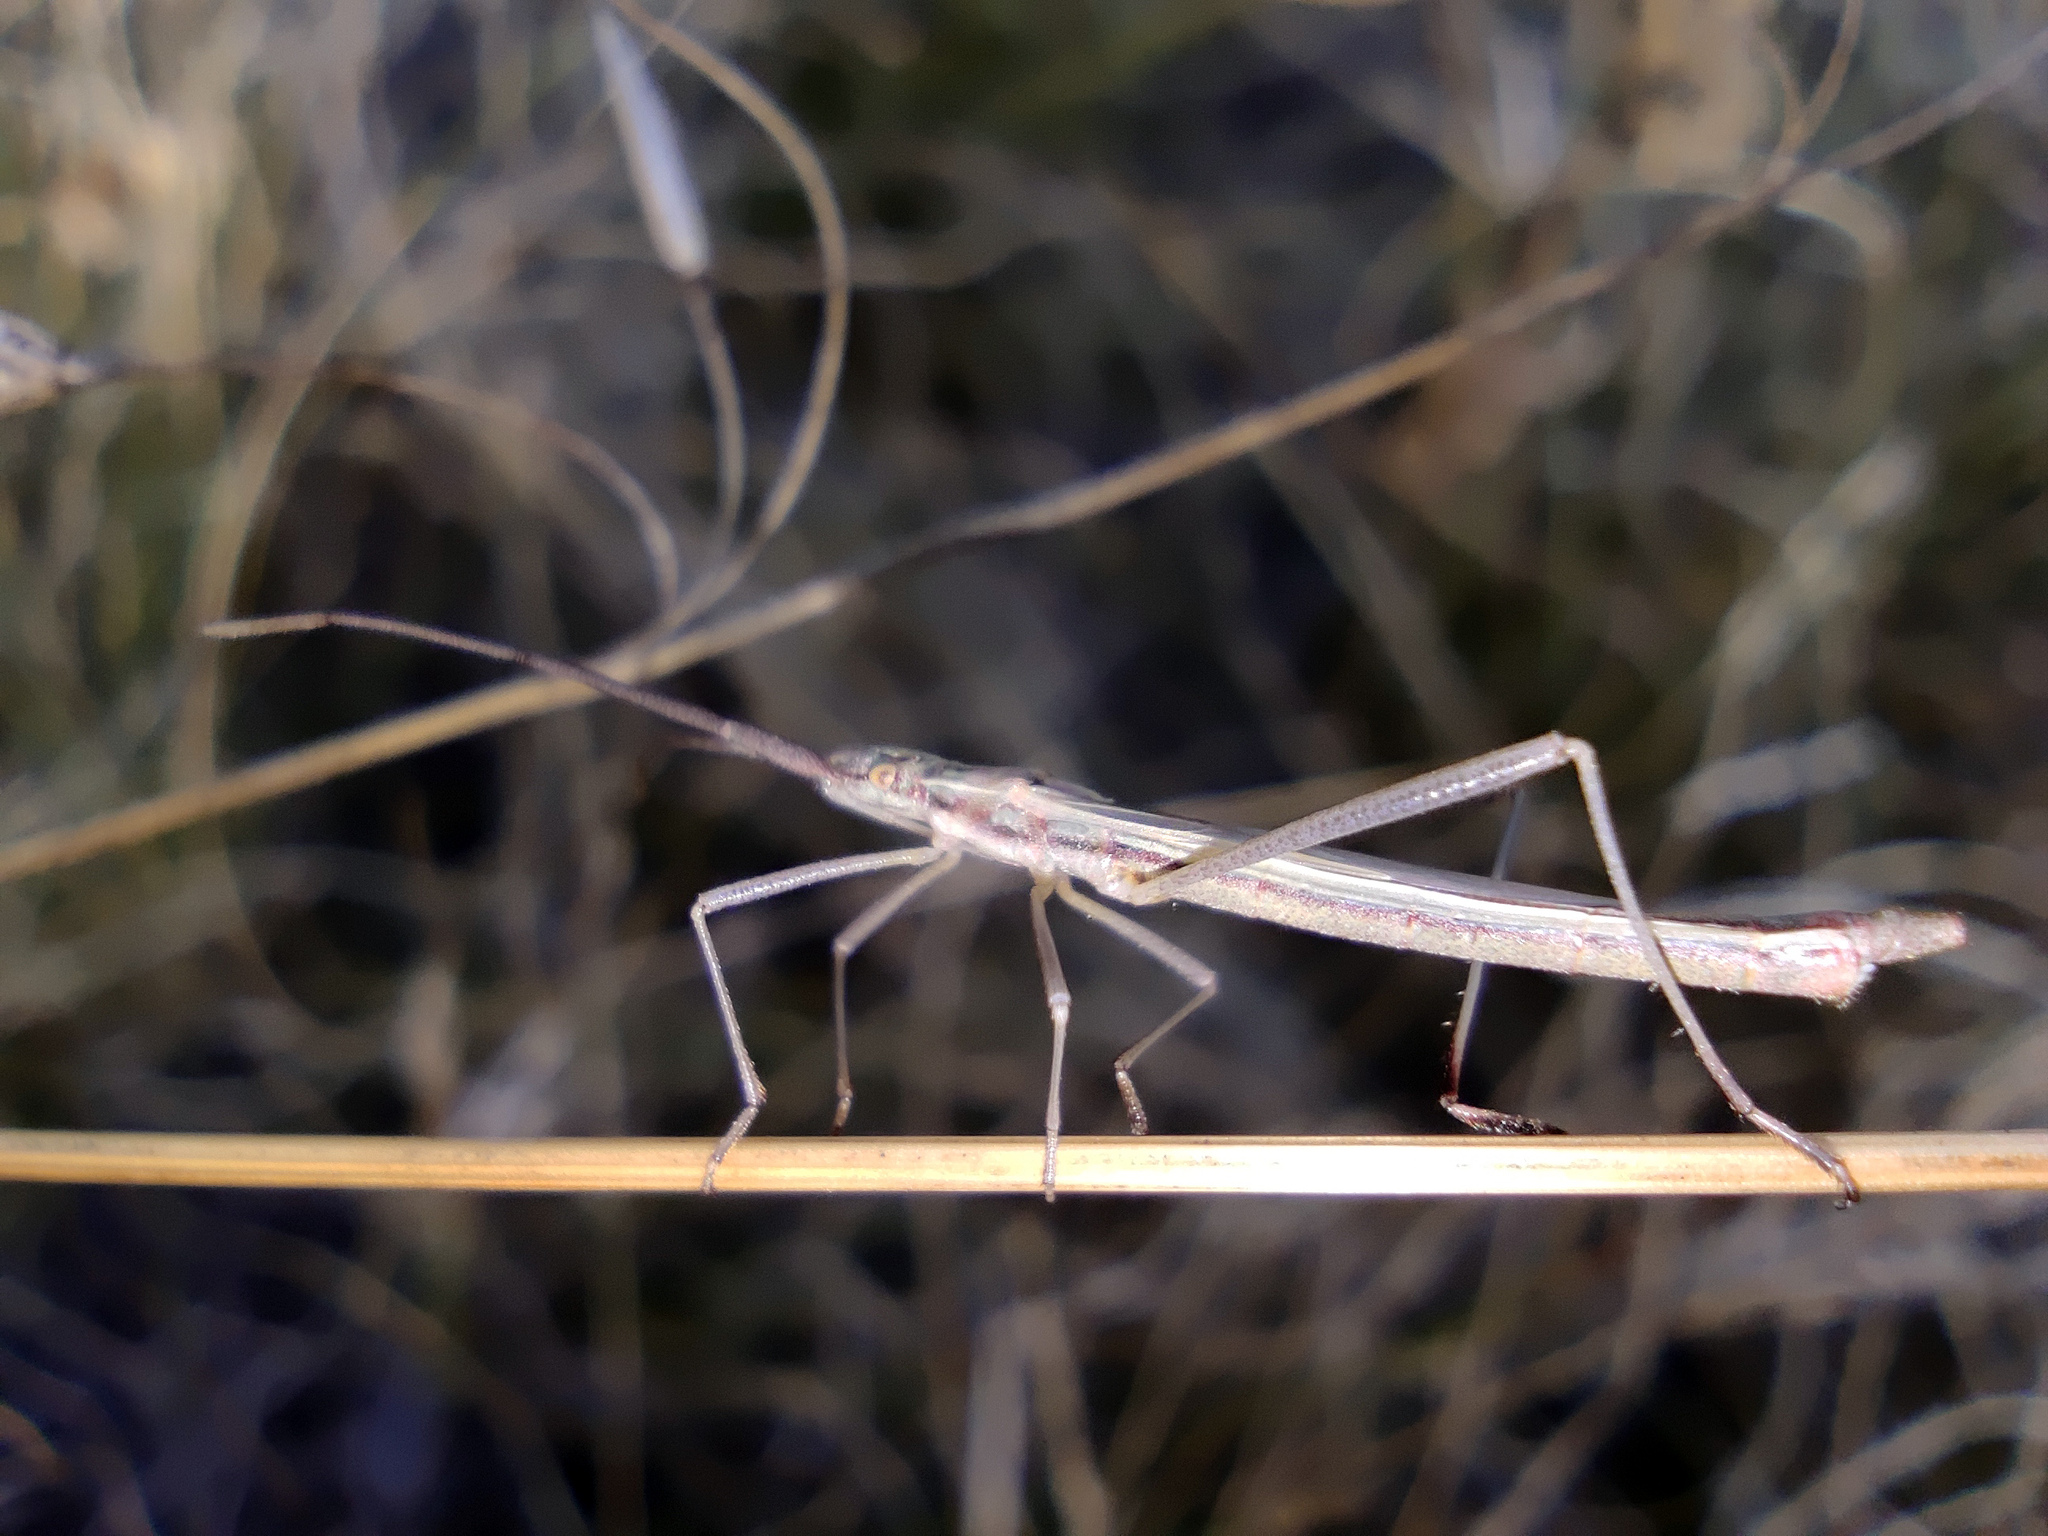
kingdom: Animalia
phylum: Arthropoda
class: Insecta
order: Hemiptera
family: Rhopalidae
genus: Chorosoma
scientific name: Chorosoma schillingii
